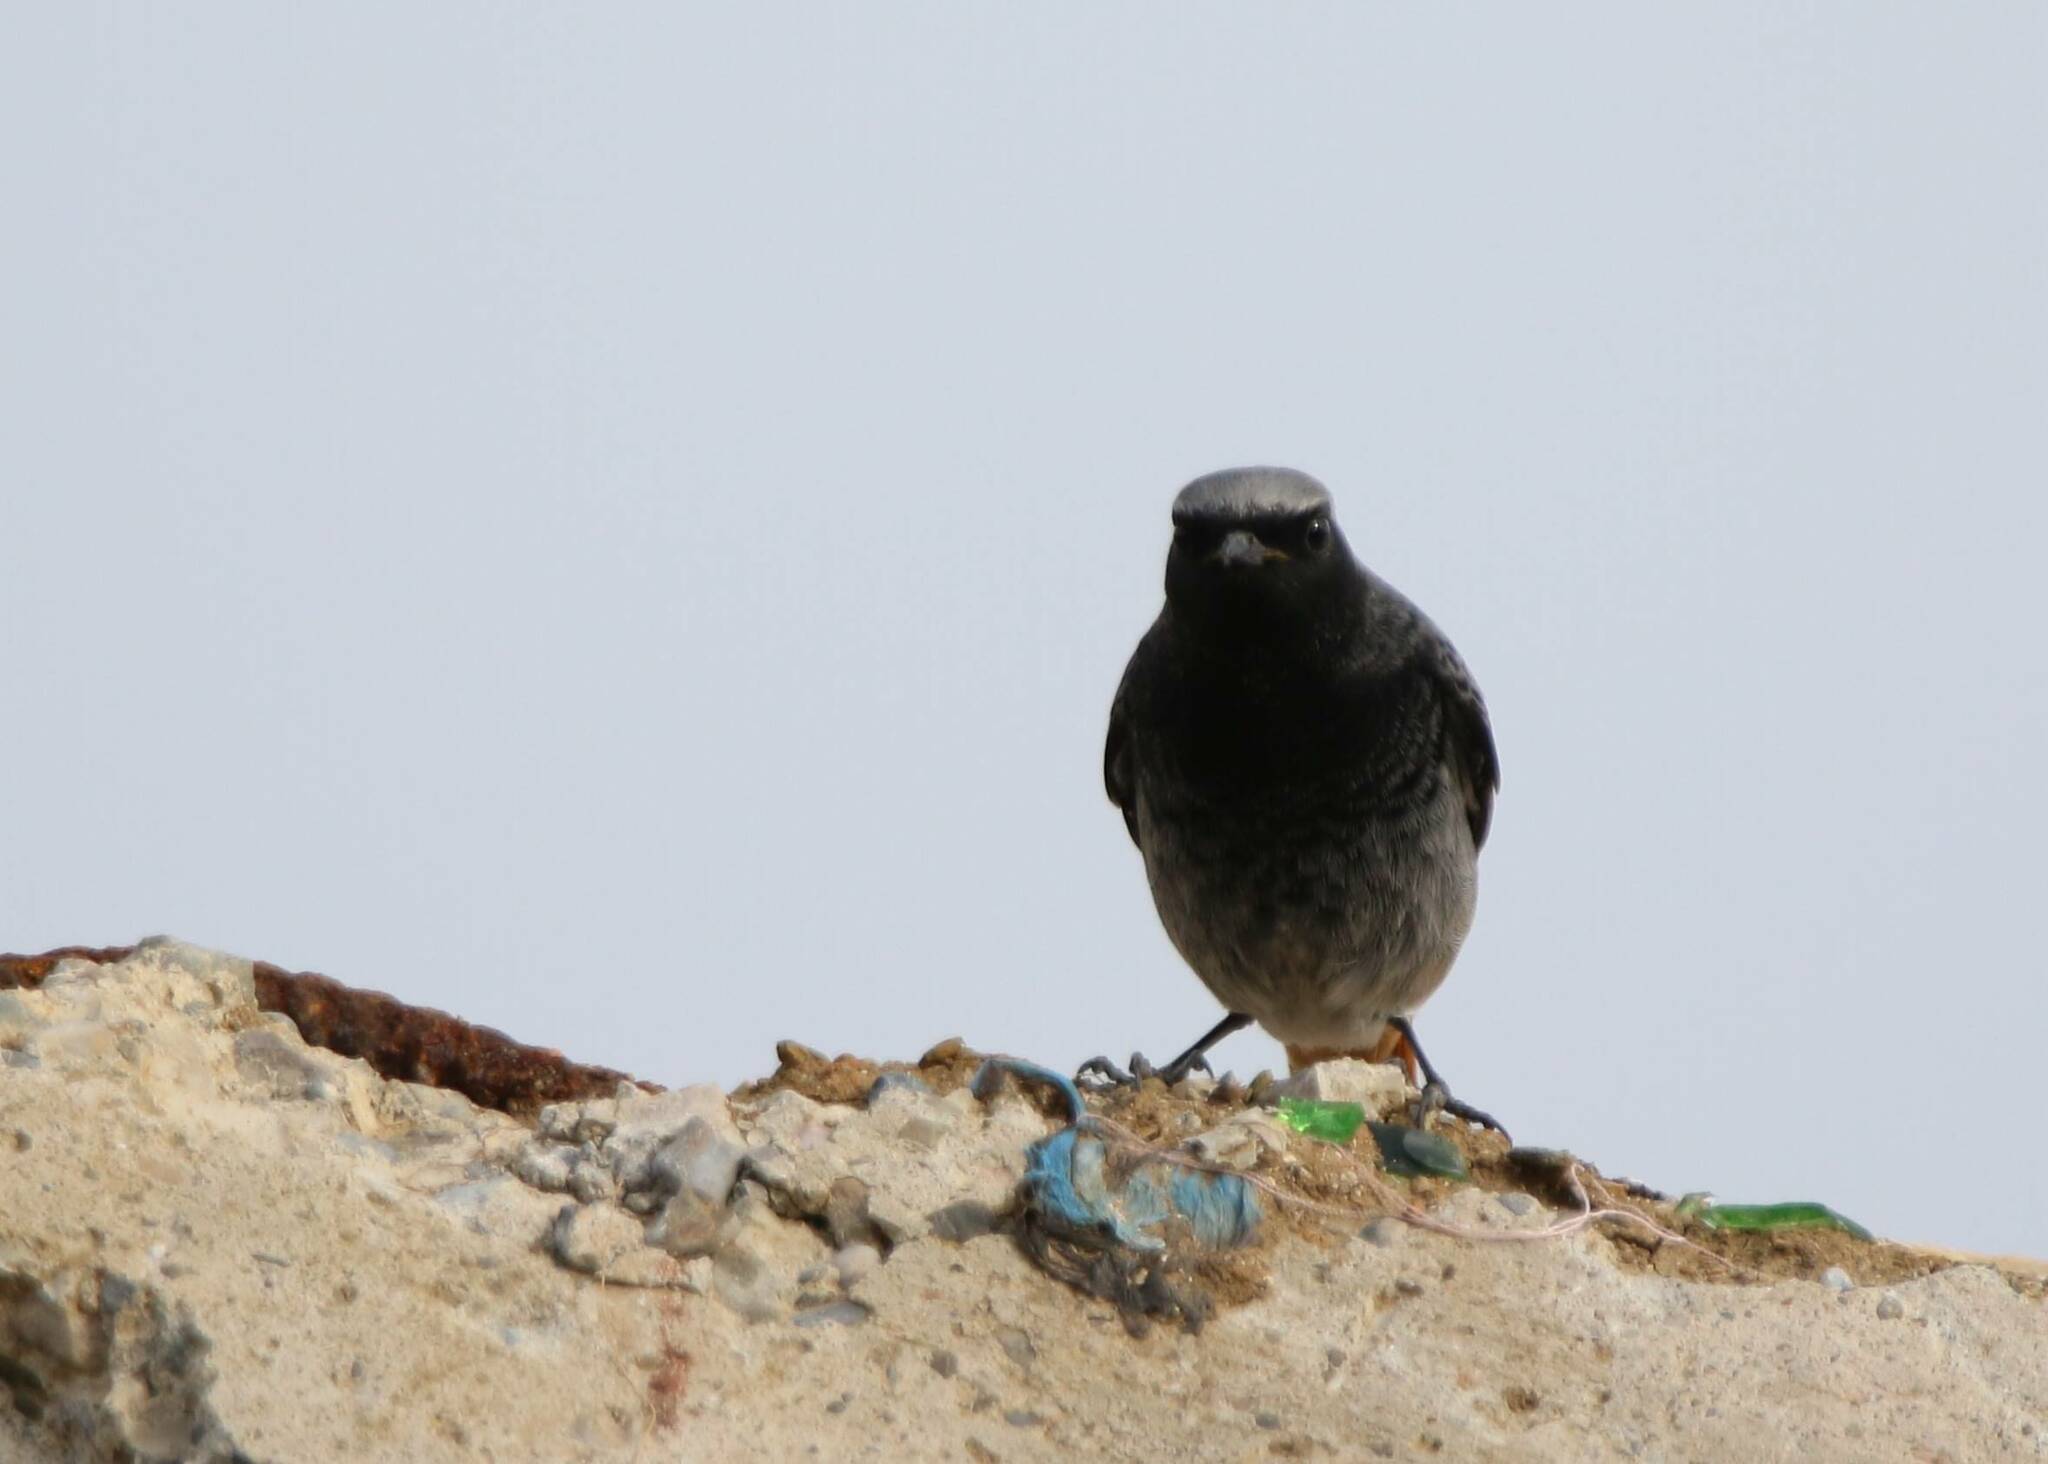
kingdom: Animalia
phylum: Chordata
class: Aves
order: Passeriformes
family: Muscicapidae
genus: Phoenicurus
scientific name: Phoenicurus ochruros
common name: Black redstart
